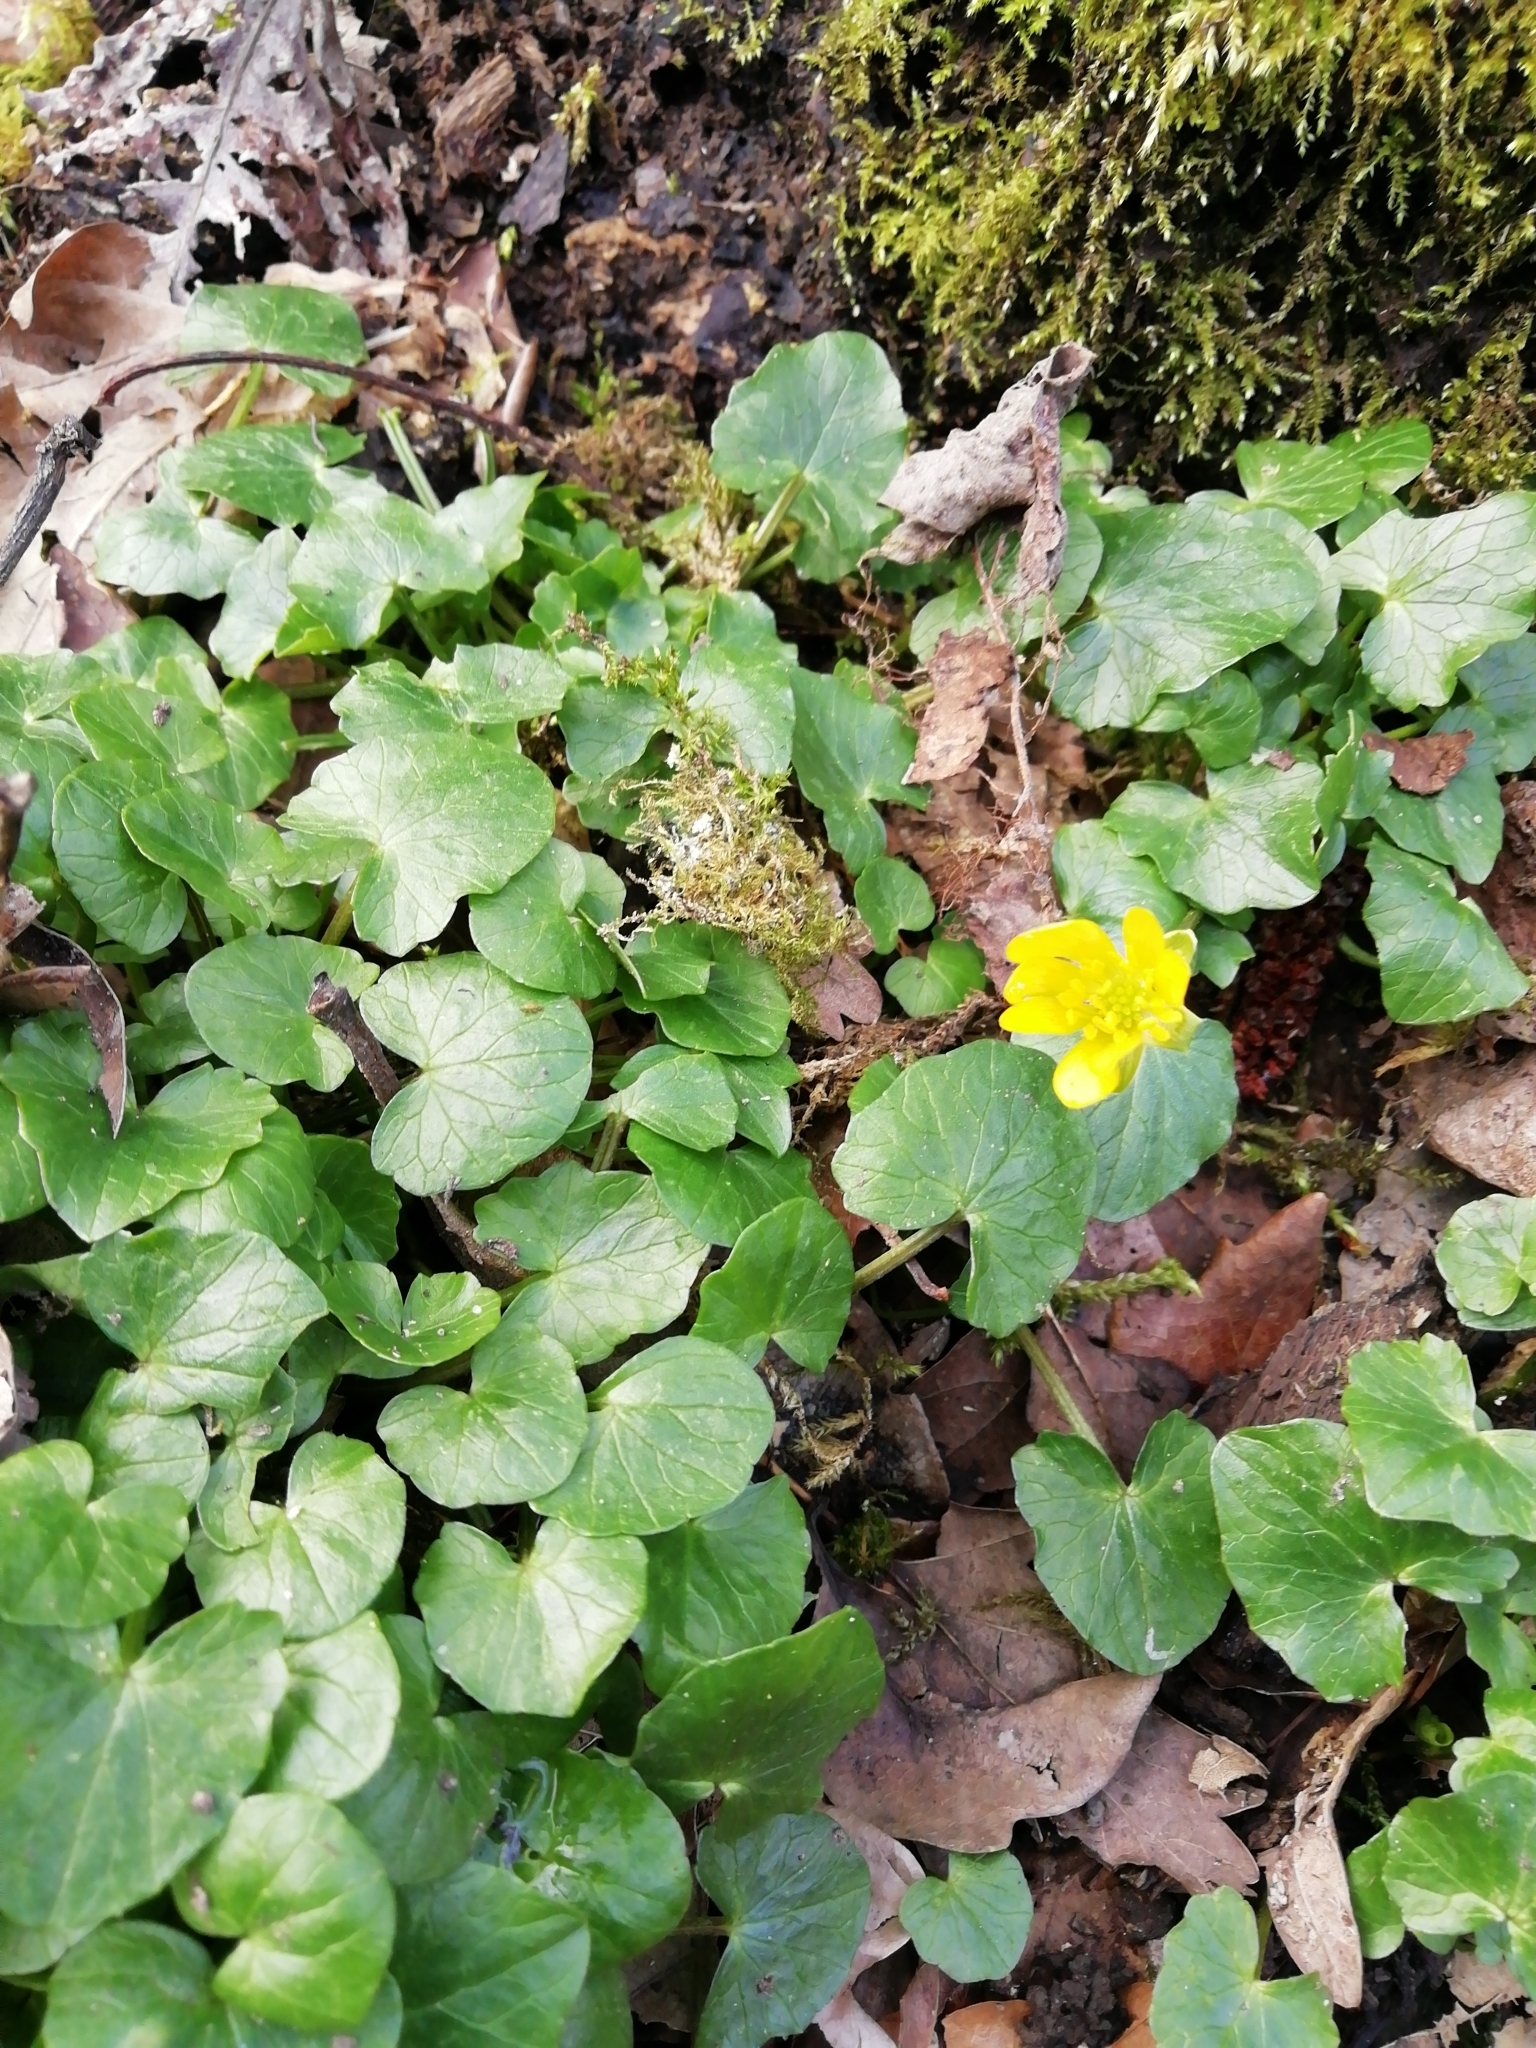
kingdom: Plantae
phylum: Tracheophyta
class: Magnoliopsida
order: Ranunculales
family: Ranunculaceae
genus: Ficaria
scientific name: Ficaria verna
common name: Lesser celandine
